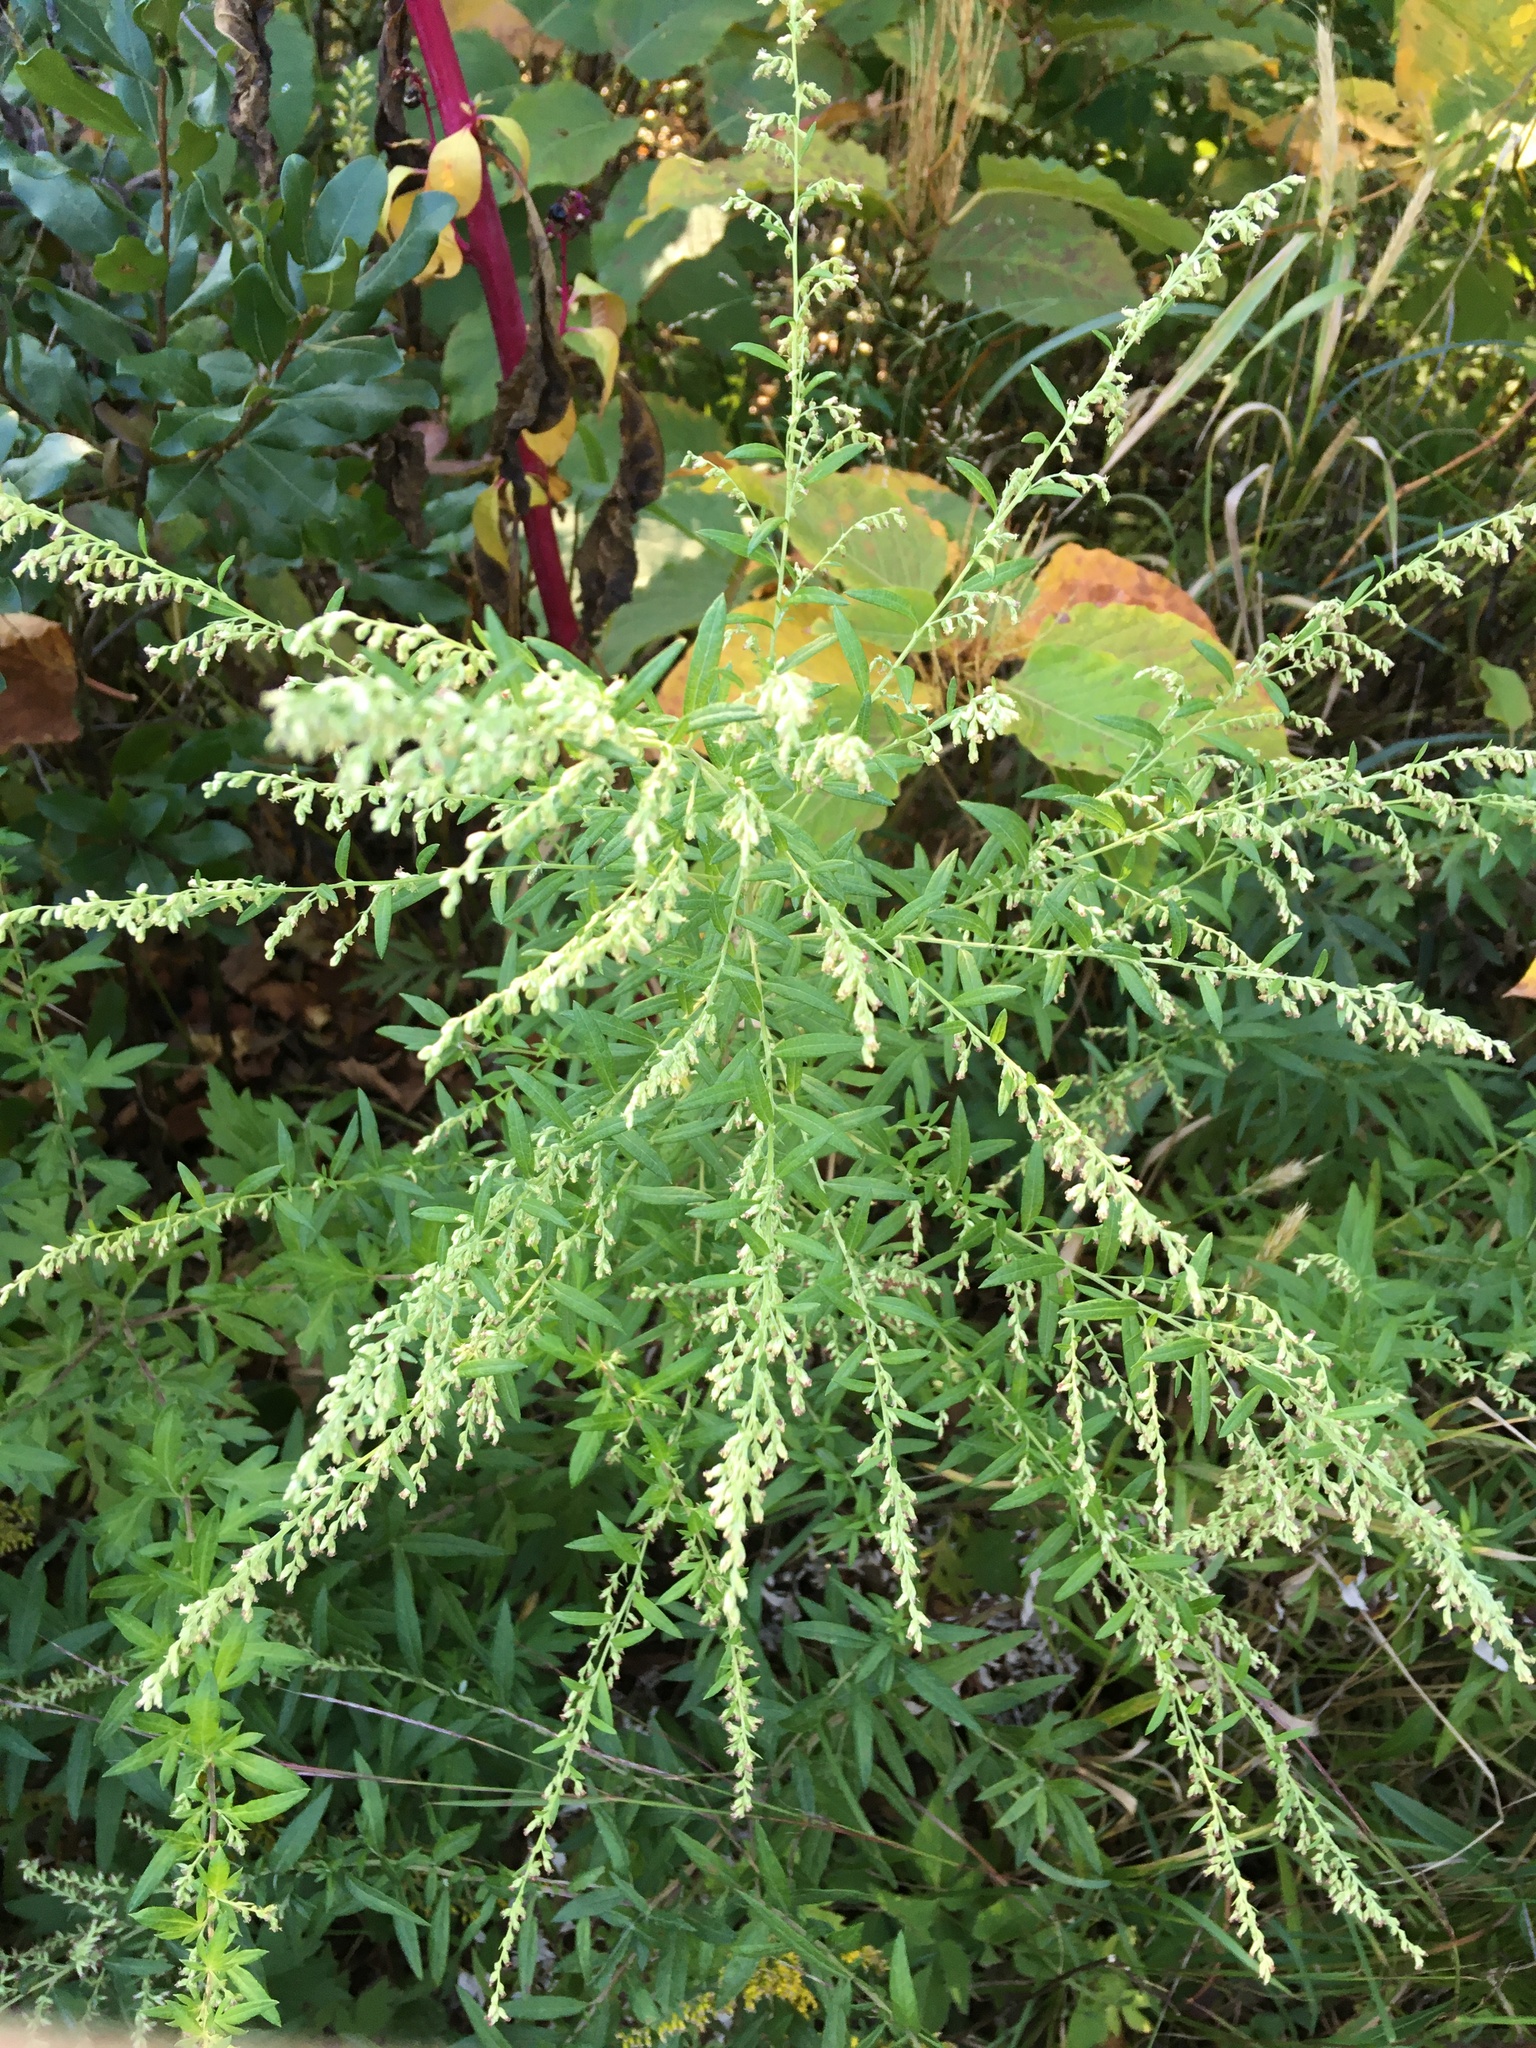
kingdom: Plantae
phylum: Tracheophyta
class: Magnoliopsida
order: Asterales
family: Asteraceae
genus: Artemisia
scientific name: Artemisia vulgaris
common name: Mugwort
